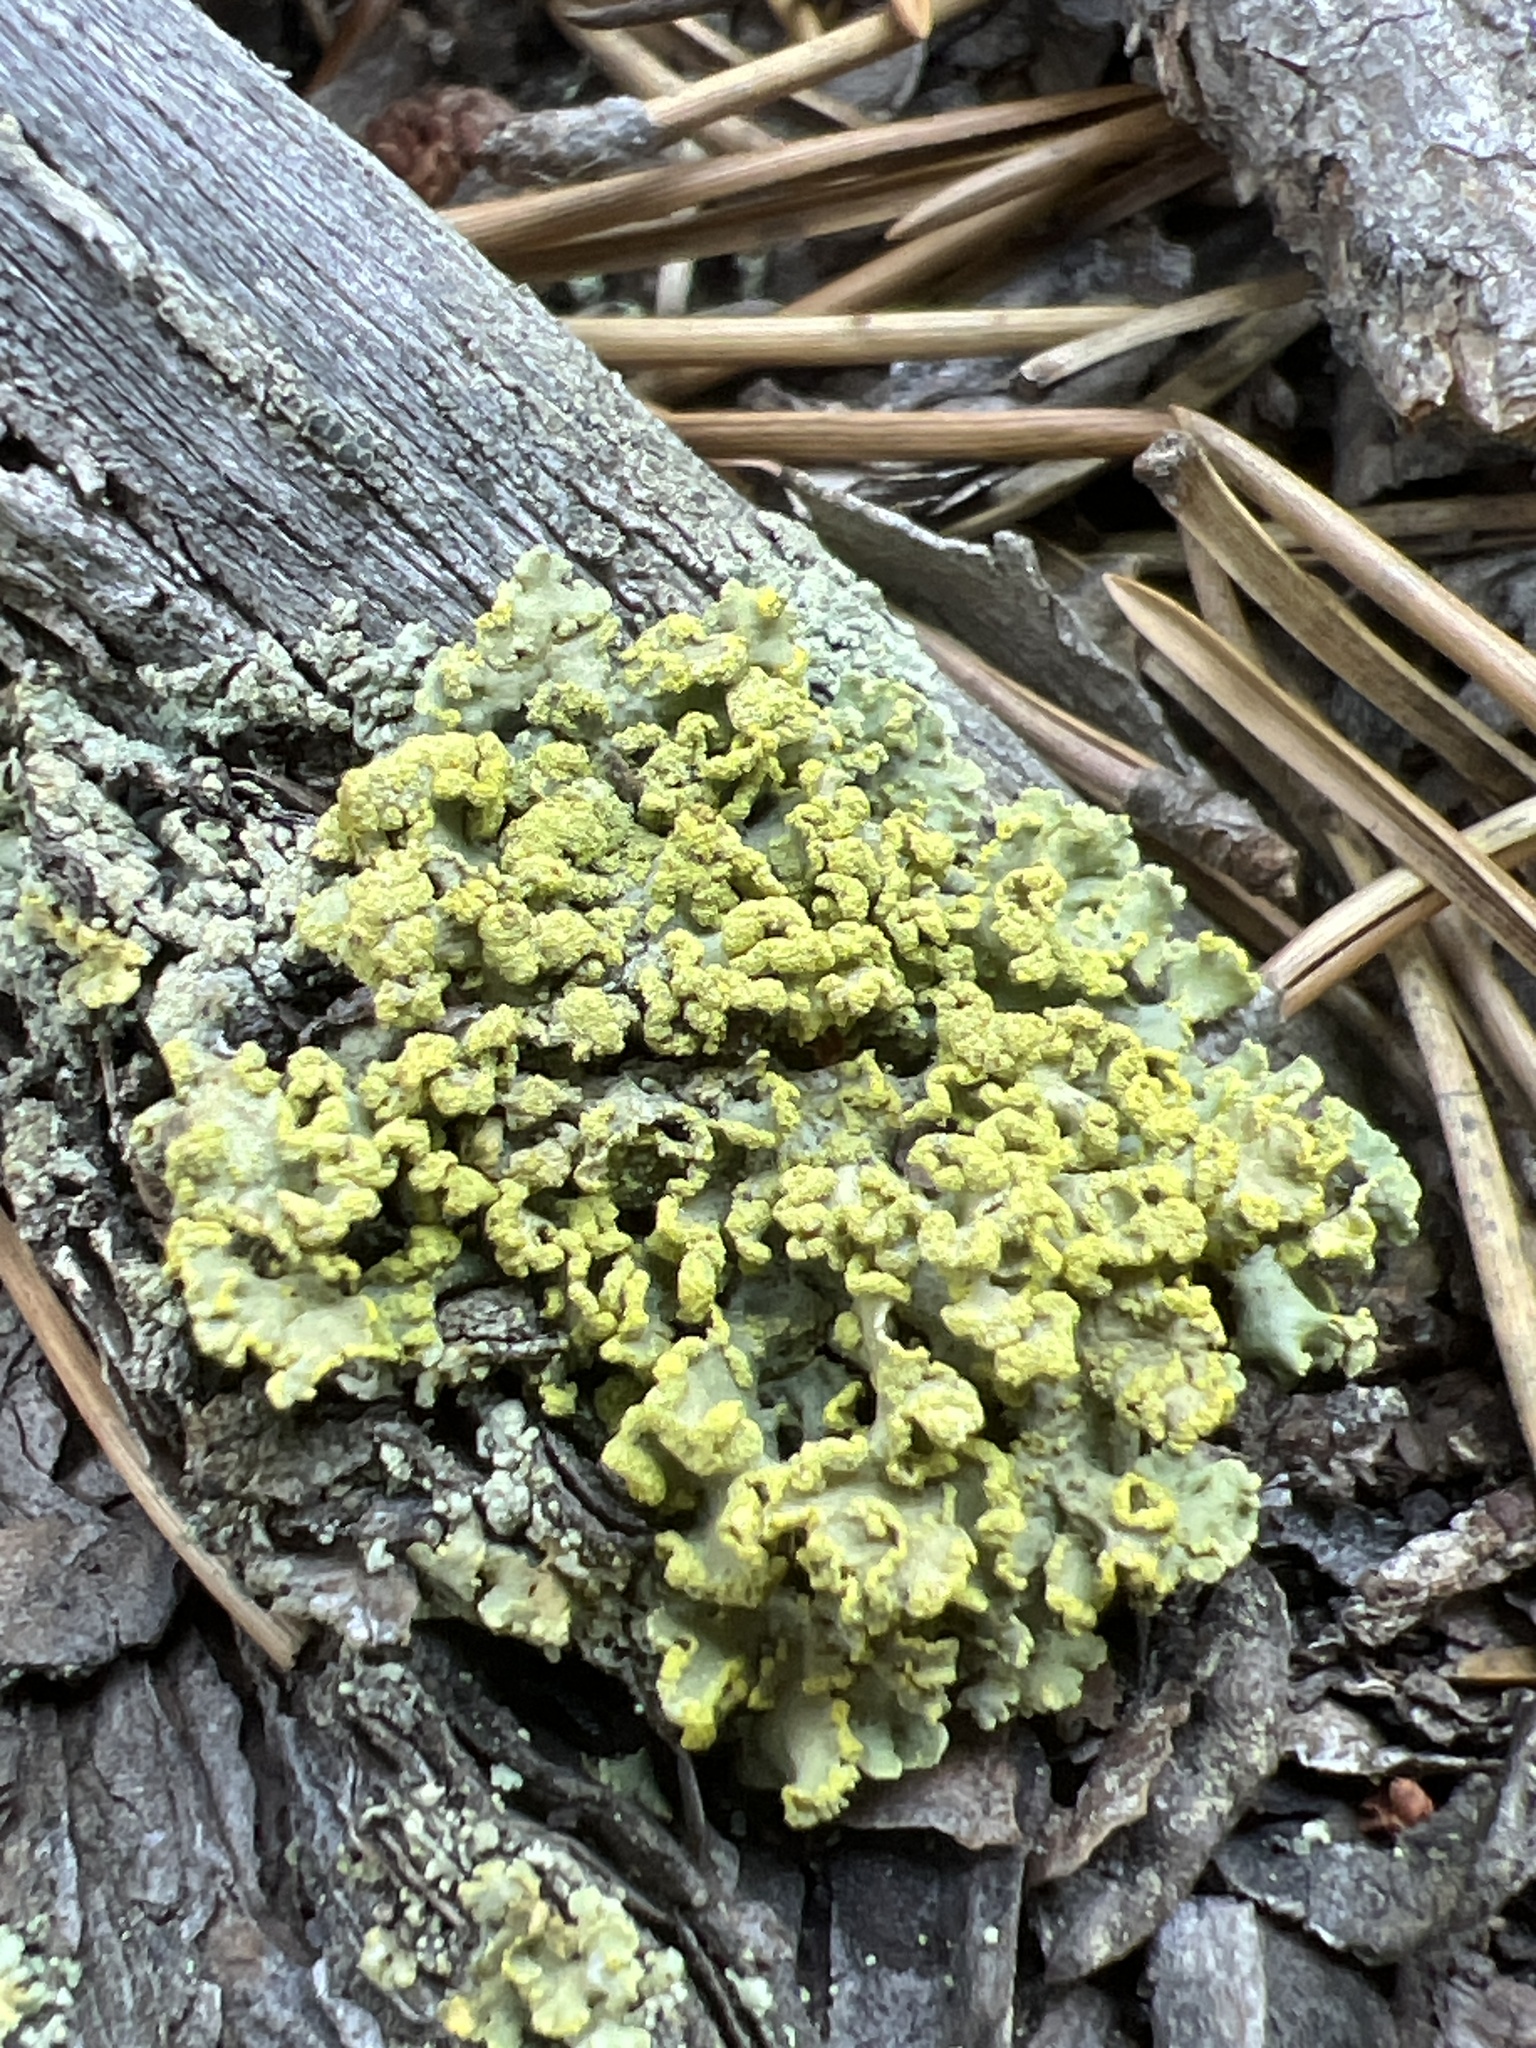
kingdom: Fungi
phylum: Ascomycota
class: Lecanoromycetes
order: Lecanorales
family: Parmeliaceae
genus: Vulpicida
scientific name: Vulpicida pinastri
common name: Powdered sunshine lichen
